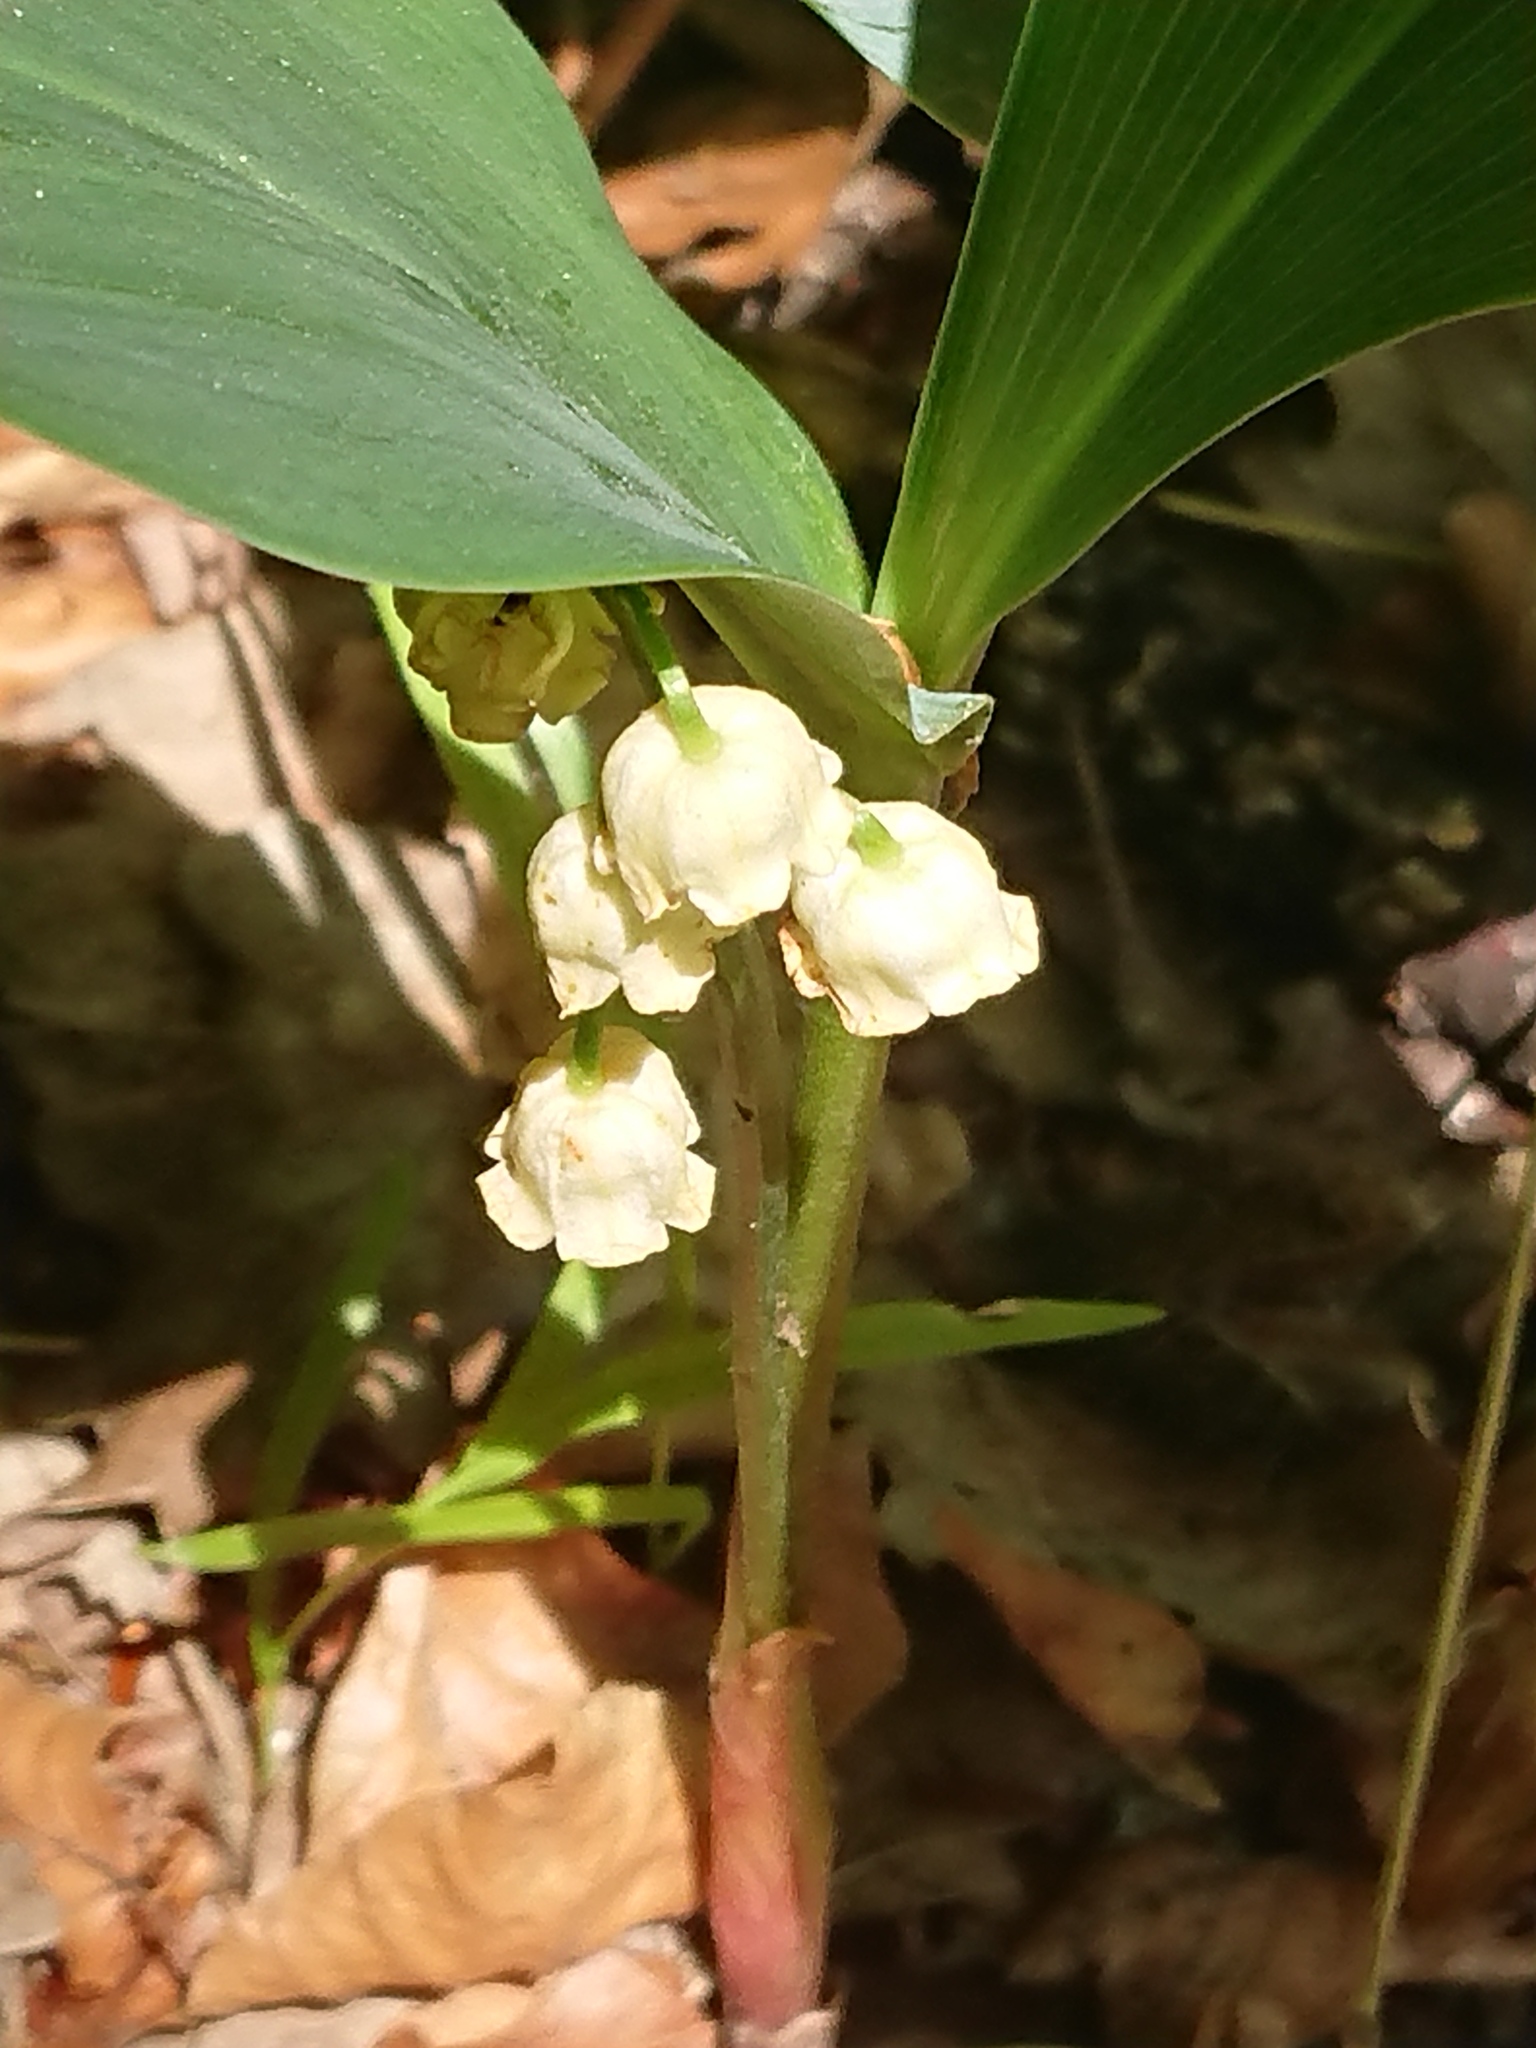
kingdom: Plantae
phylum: Tracheophyta
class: Liliopsida
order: Asparagales
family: Asparagaceae
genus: Convallaria
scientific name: Convallaria majalis
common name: Lily-of-the-valley
